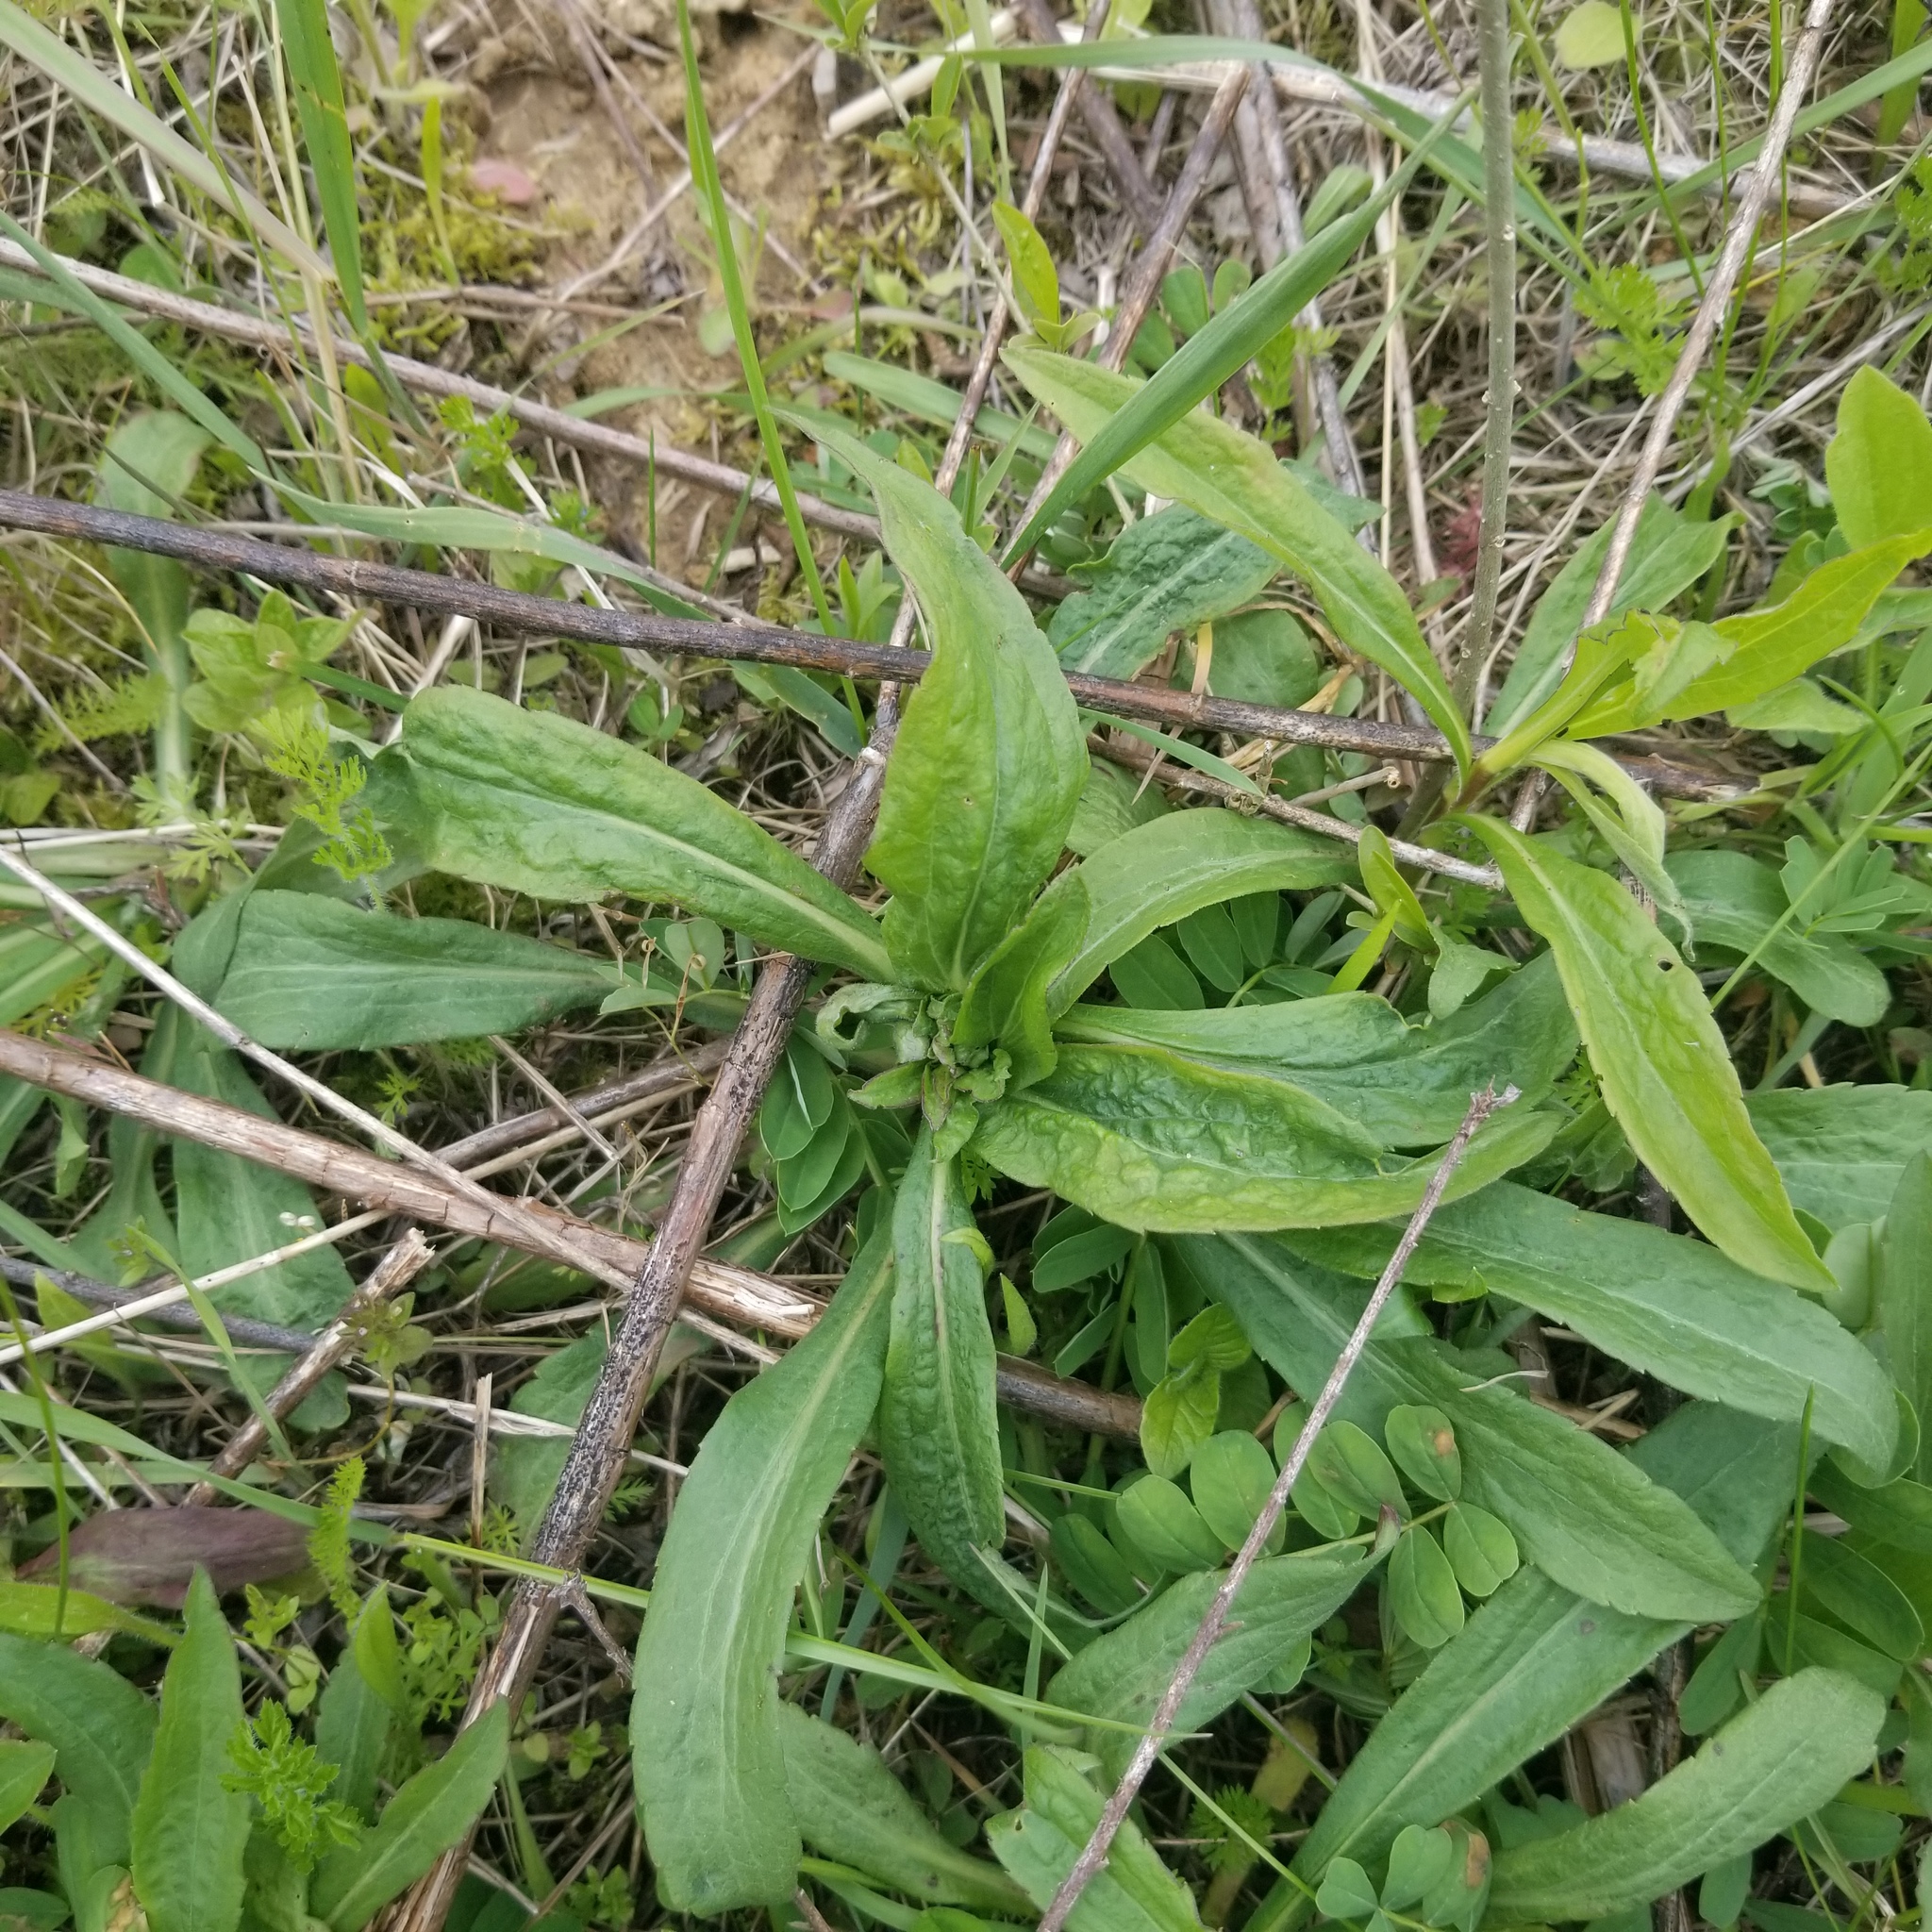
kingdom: Animalia
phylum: Arthropoda
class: Insecta
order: Diptera
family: Cecidomyiidae
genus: Rhopalomyia
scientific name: Rhopalomyia solidaginis
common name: Goldenrod bunch gall midge
